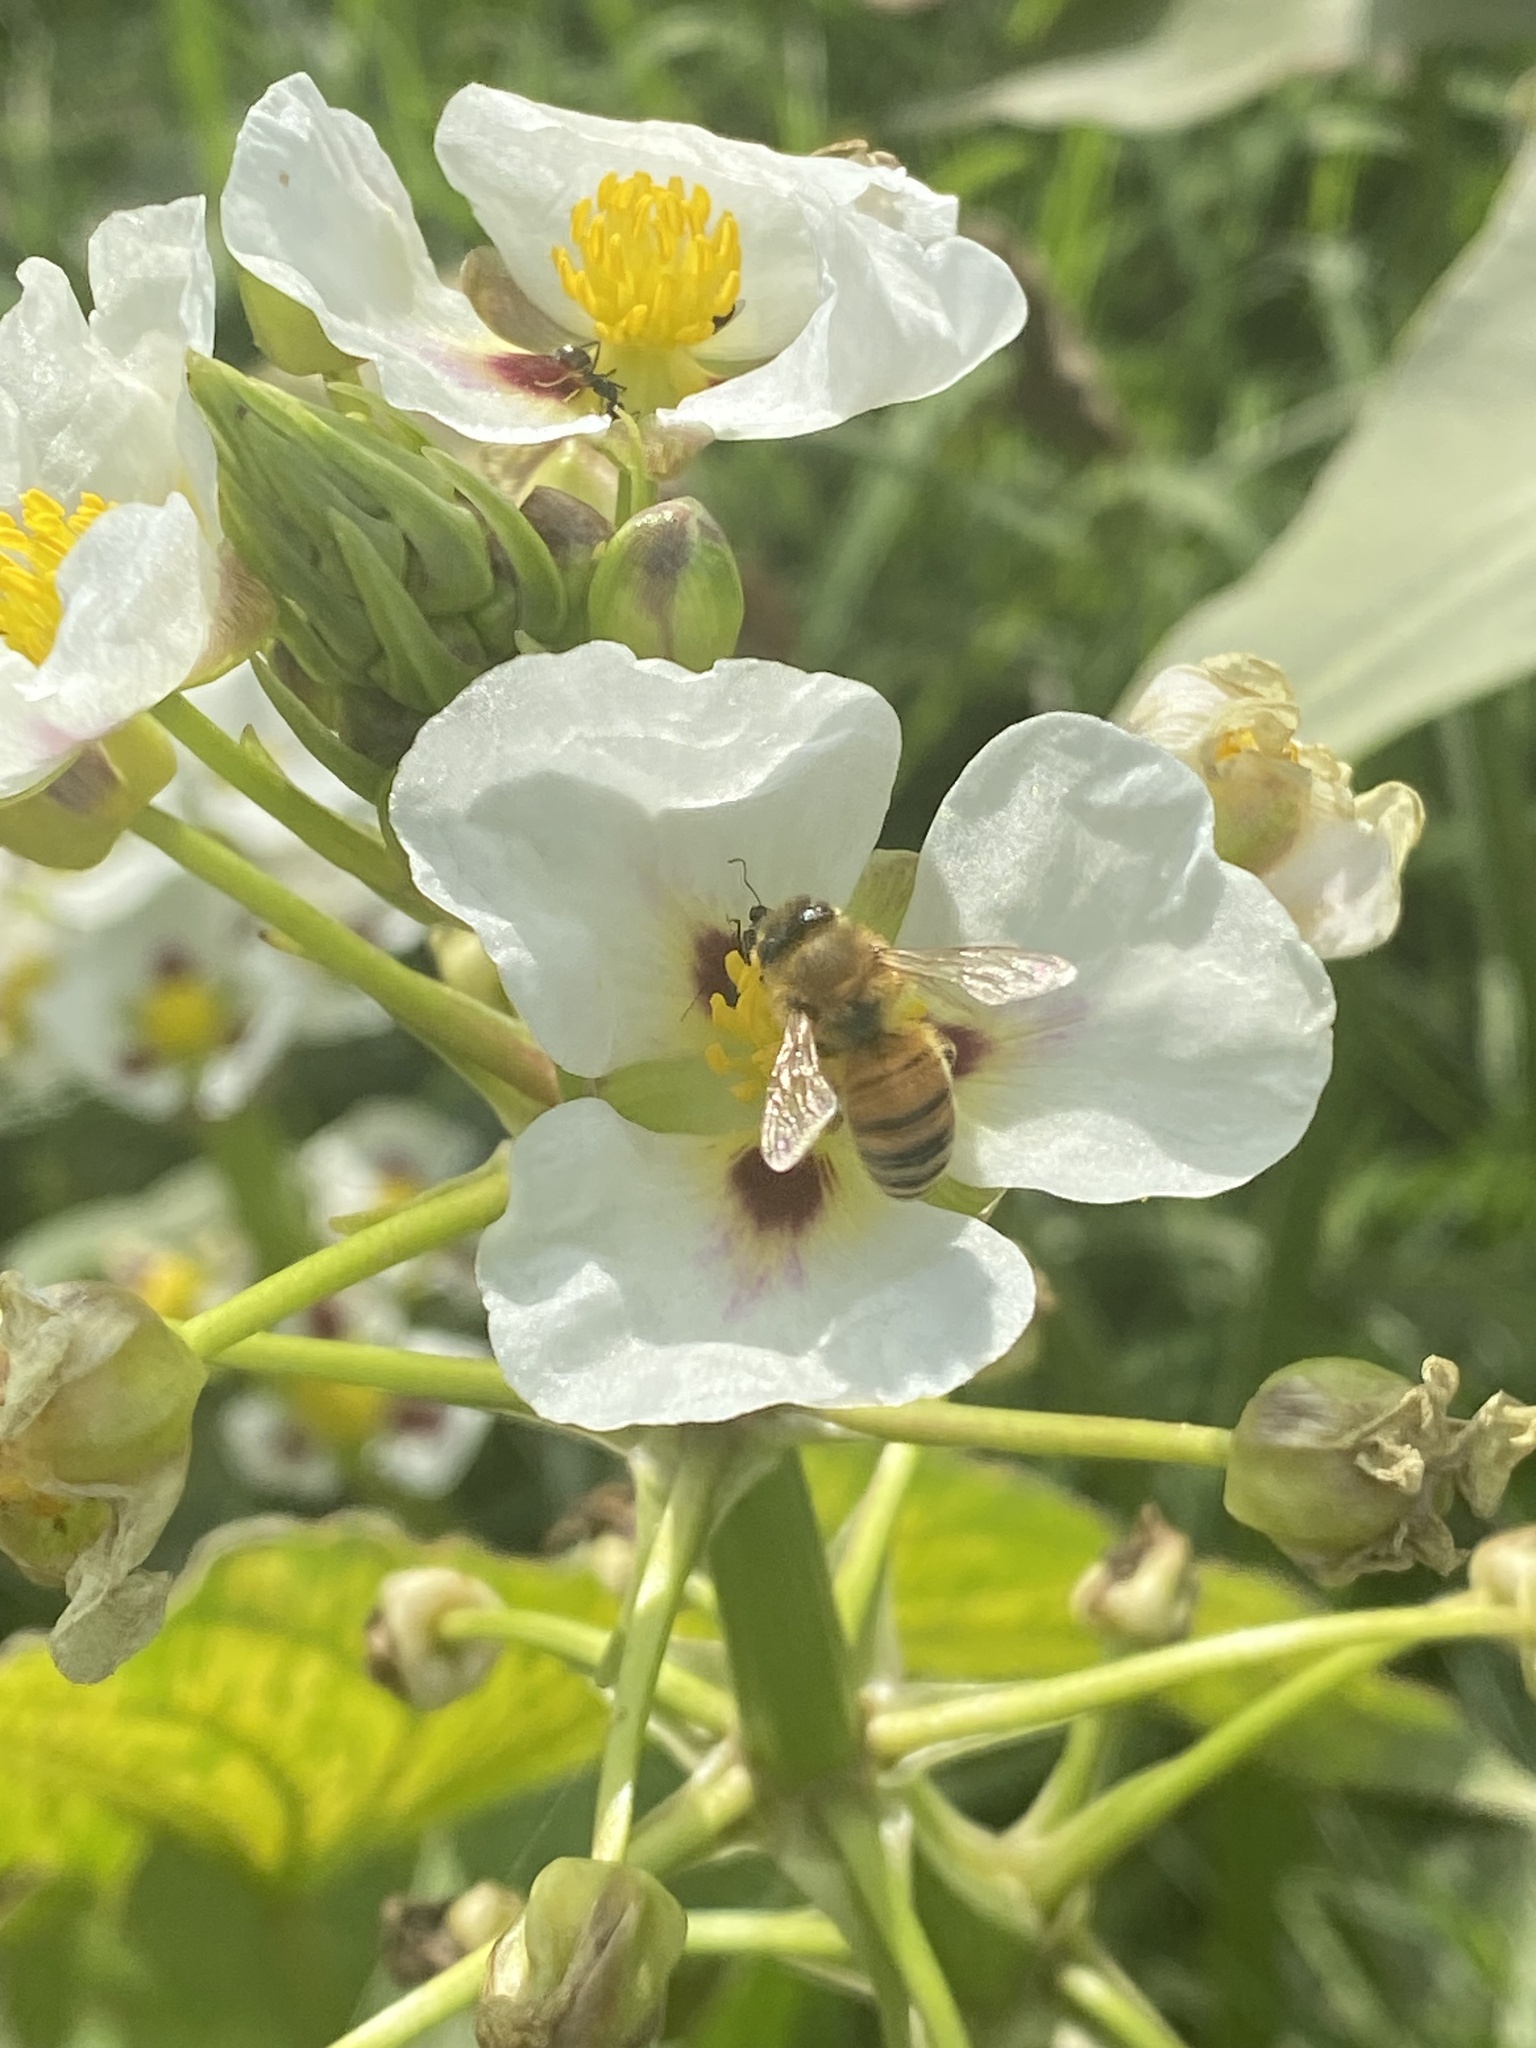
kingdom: Animalia
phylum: Arthropoda
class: Insecta
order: Hymenoptera
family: Apidae
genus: Apis
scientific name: Apis mellifera
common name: Honey bee
